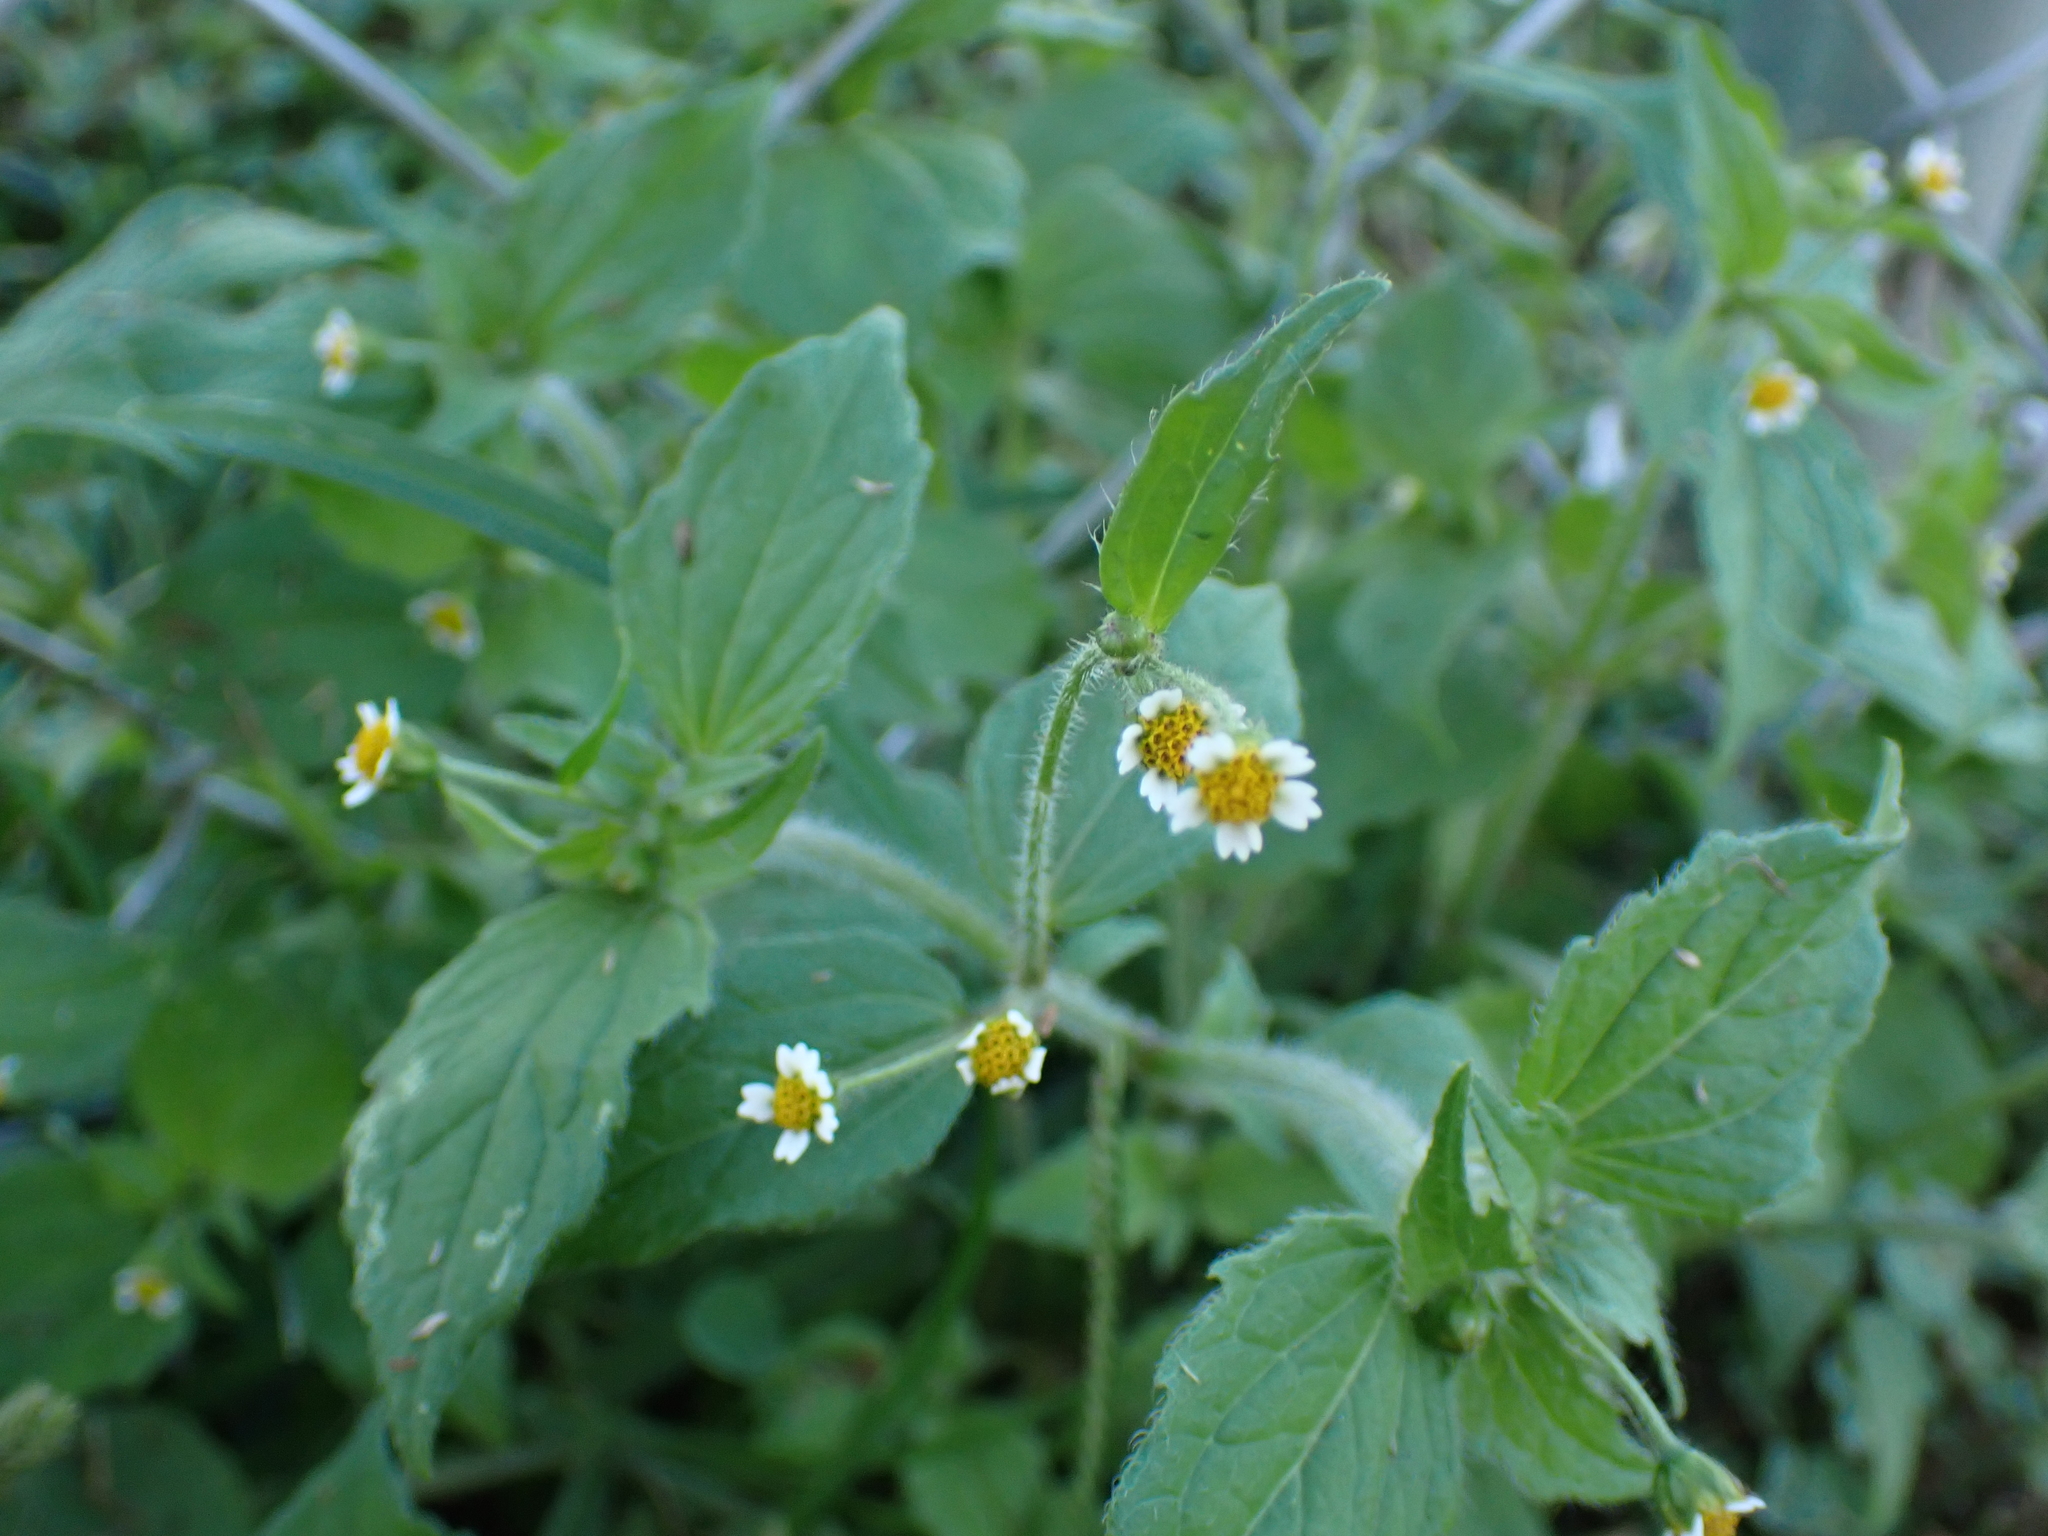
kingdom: Plantae
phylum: Tracheophyta
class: Magnoliopsida
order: Asterales
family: Asteraceae
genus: Galinsoga
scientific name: Galinsoga quadriradiata
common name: Shaggy soldier
